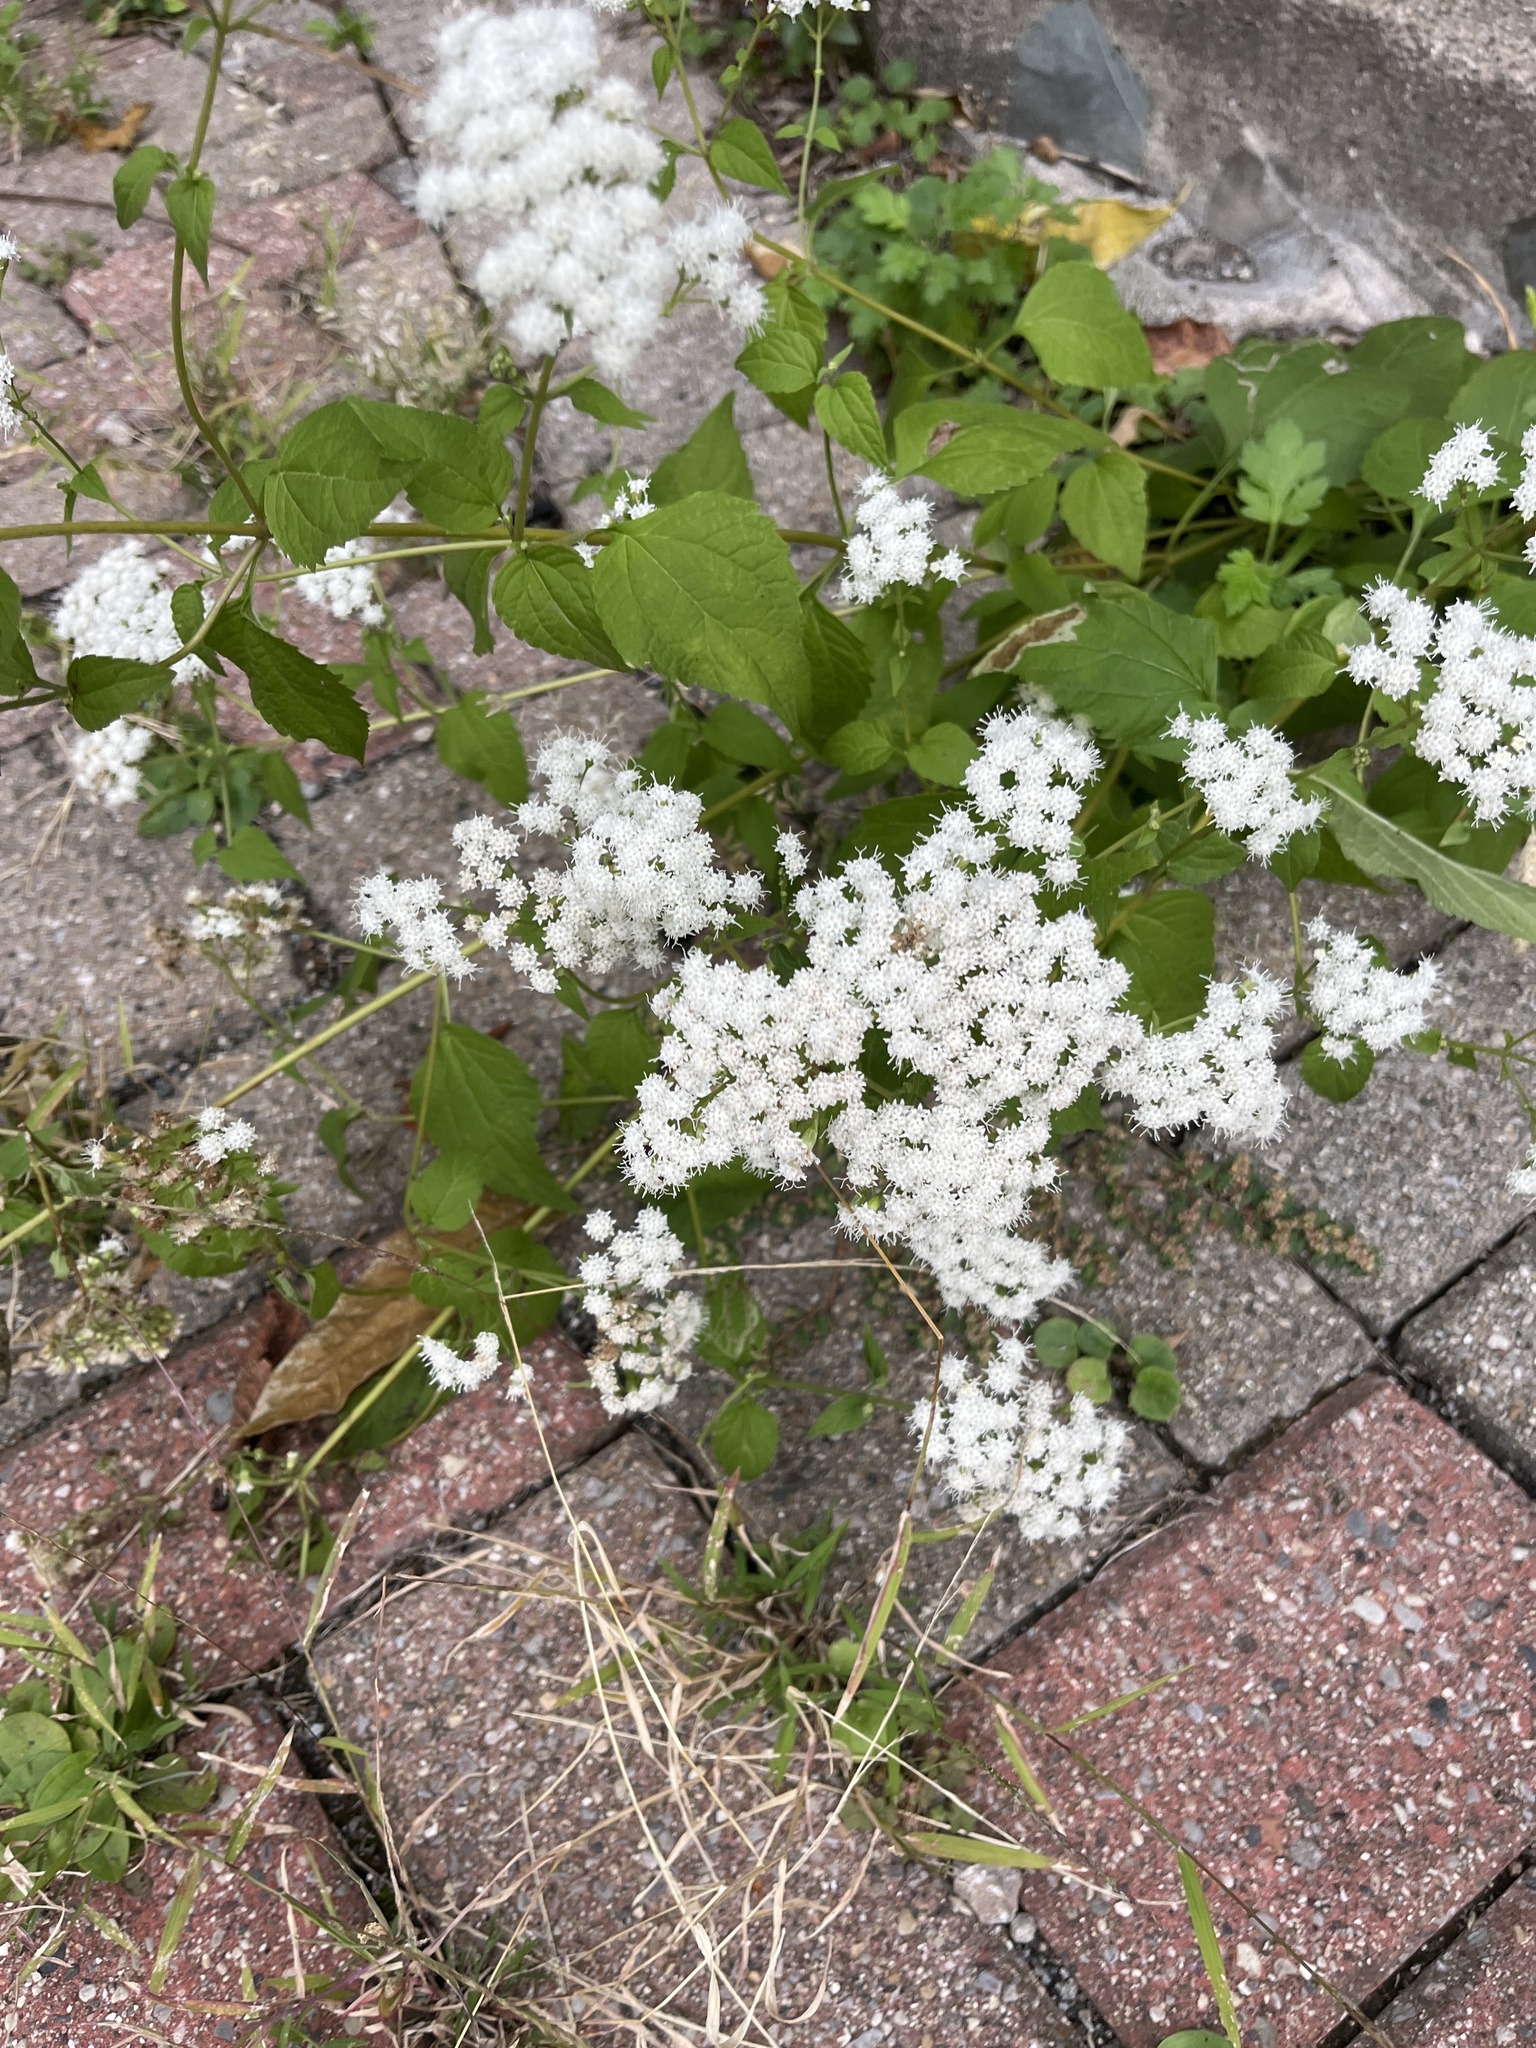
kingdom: Plantae
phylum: Tracheophyta
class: Magnoliopsida
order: Asterales
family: Asteraceae
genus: Ageratina
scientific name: Ageratina altissima
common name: White snakeroot
